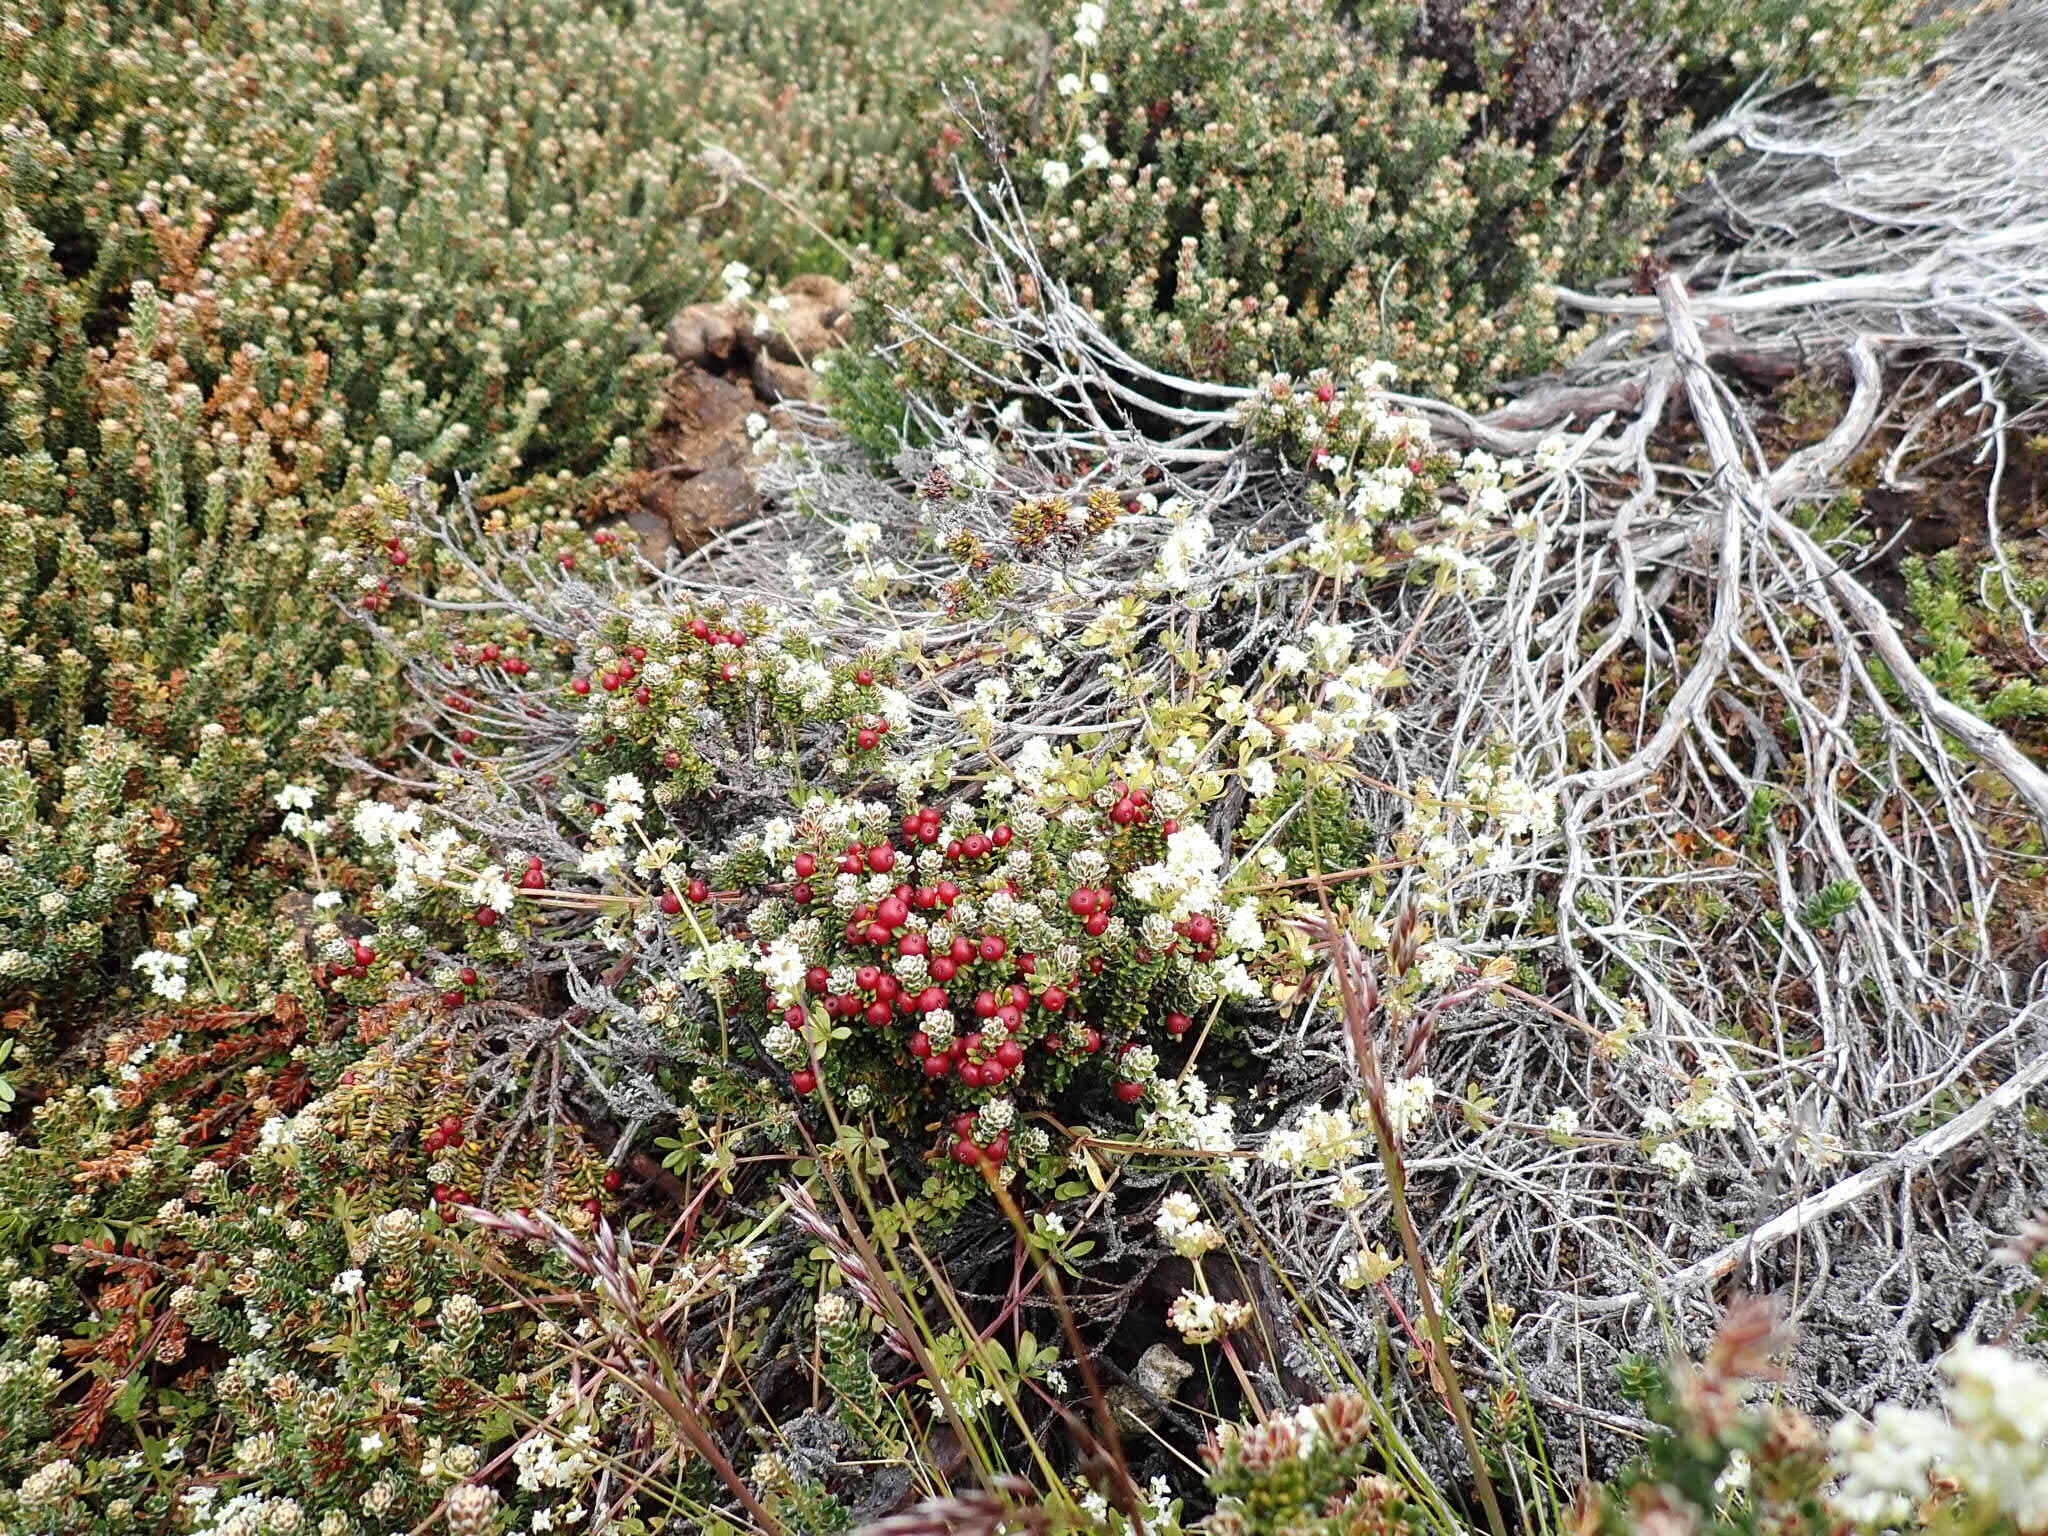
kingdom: Plantae
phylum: Tracheophyta
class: Magnoliopsida
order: Ericales
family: Ericaceae
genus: Empetrum
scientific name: Empetrum rubrum
